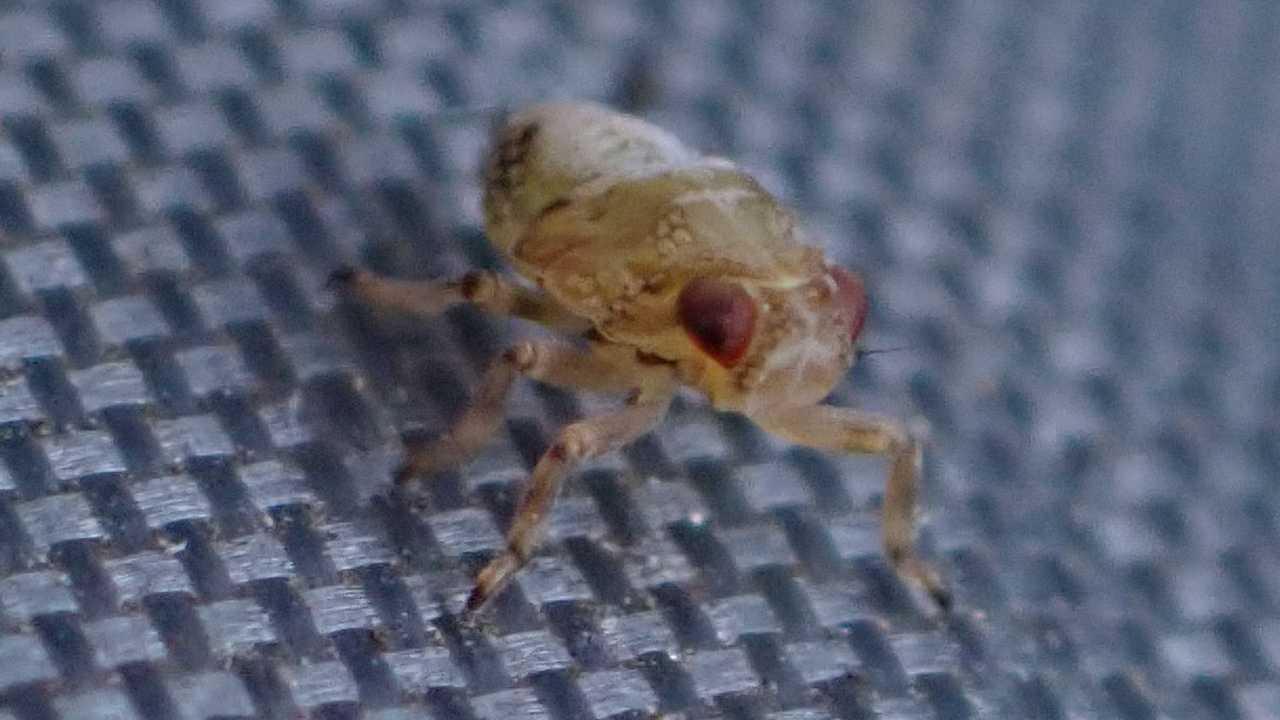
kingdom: Animalia
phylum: Arthropoda
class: Insecta
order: Hemiptera
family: Issidae
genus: Issus
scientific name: Issus coleoptratus
